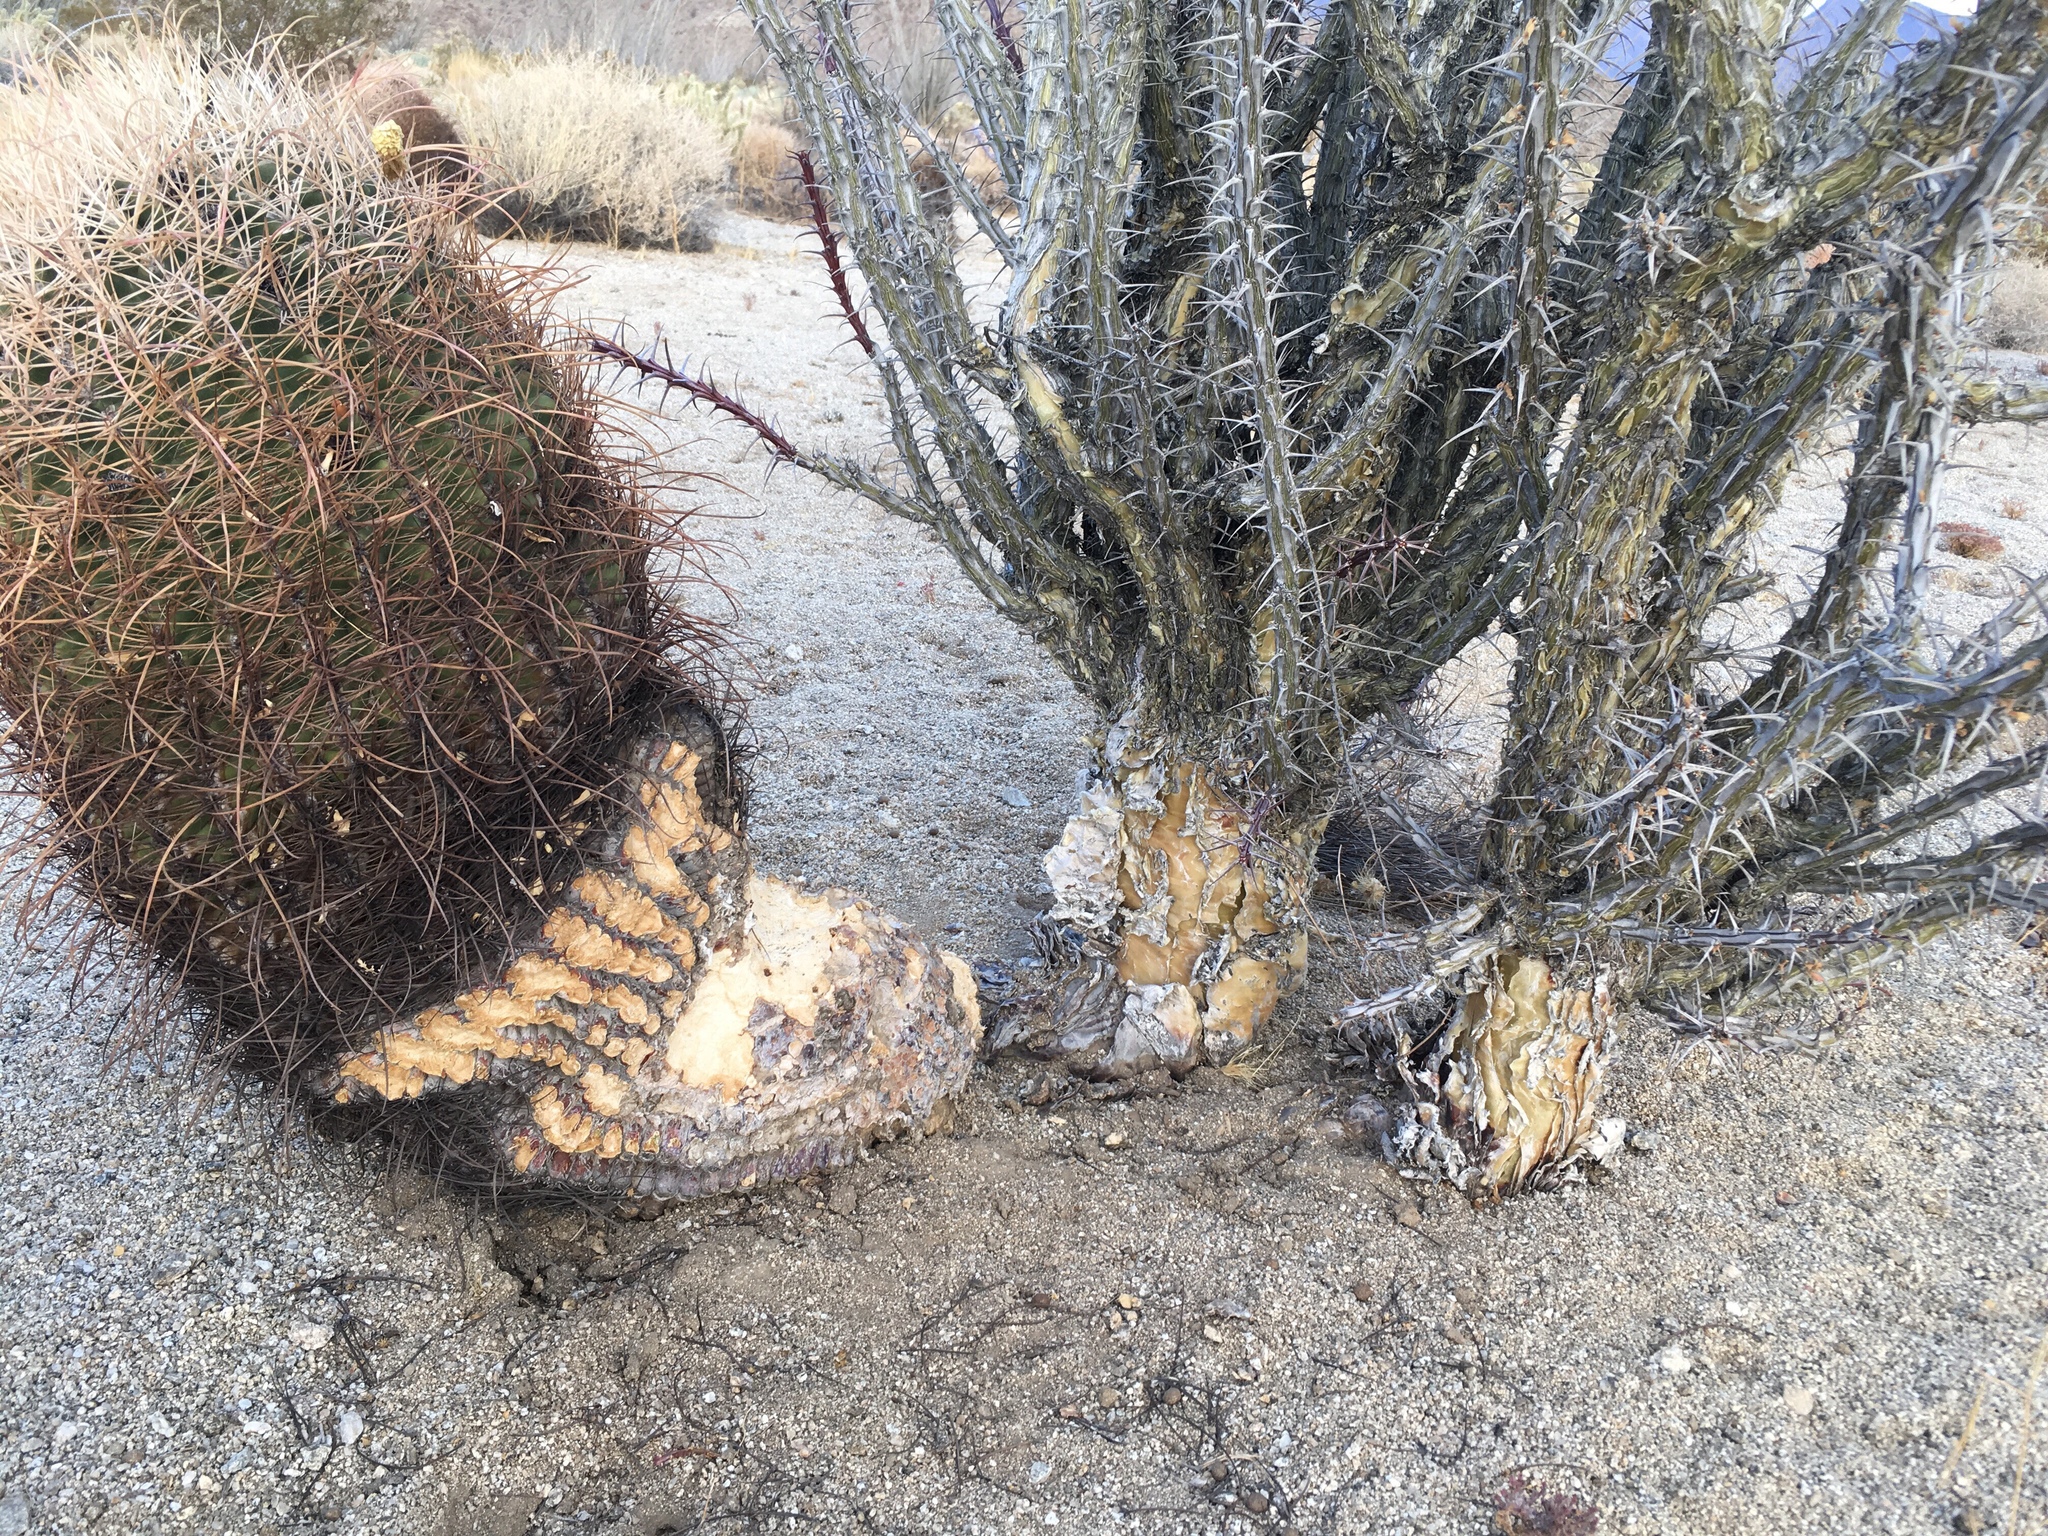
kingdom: Plantae
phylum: Tracheophyta
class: Magnoliopsida
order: Caryophyllales
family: Cactaceae
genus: Ferocactus
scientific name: Ferocactus cylindraceus
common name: California barrel cactus
